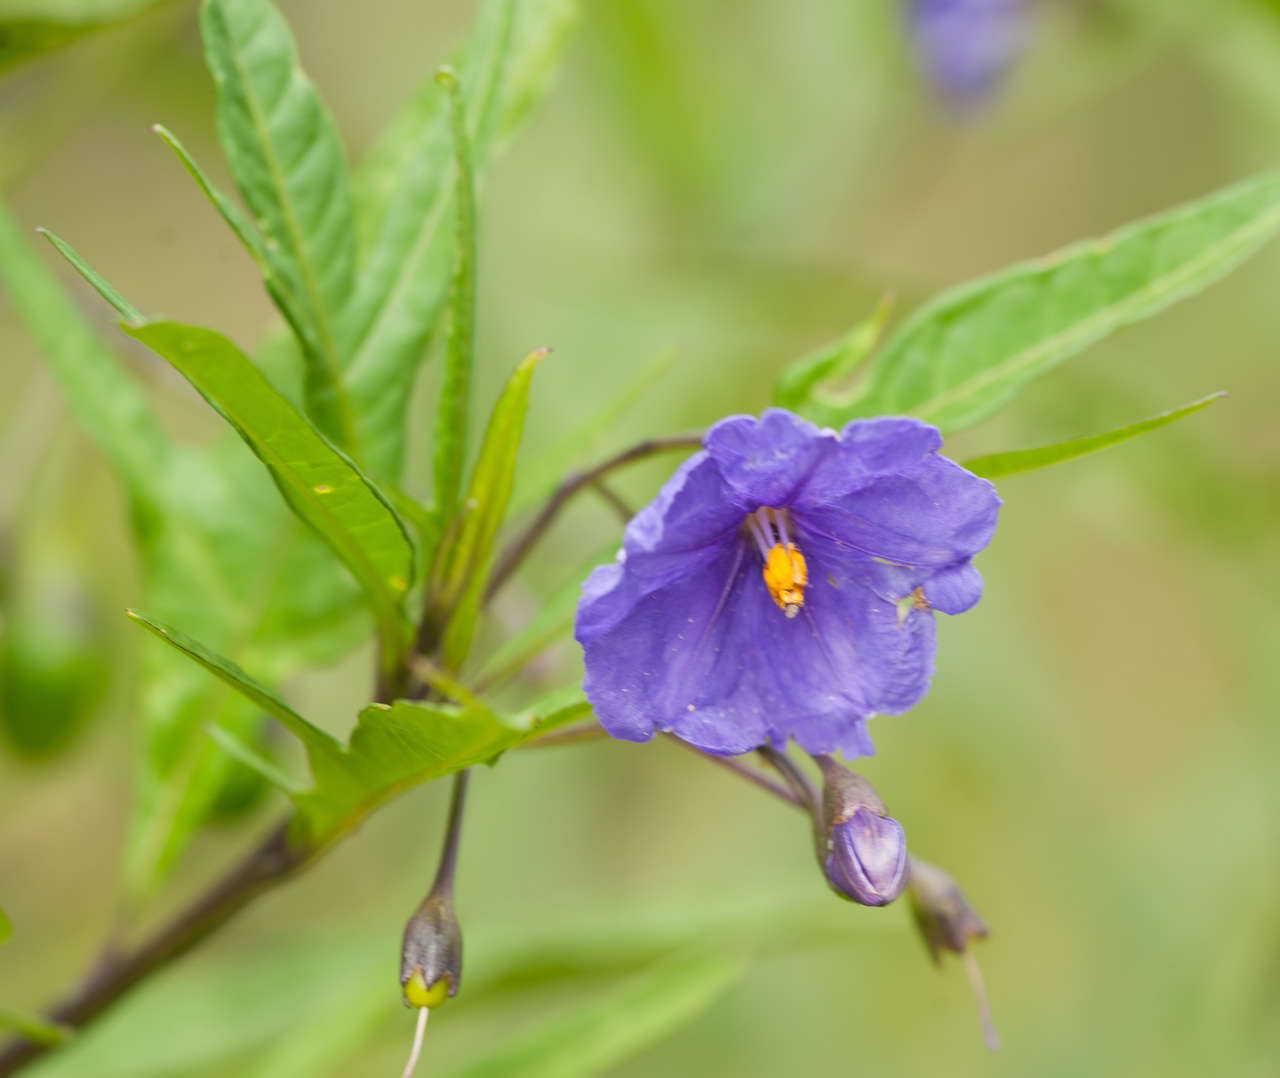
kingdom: Plantae
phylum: Tracheophyta
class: Magnoliopsida
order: Solanales
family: Solanaceae
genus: Solanum
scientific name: Solanum laciniatum
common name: Kangaroo-apple
